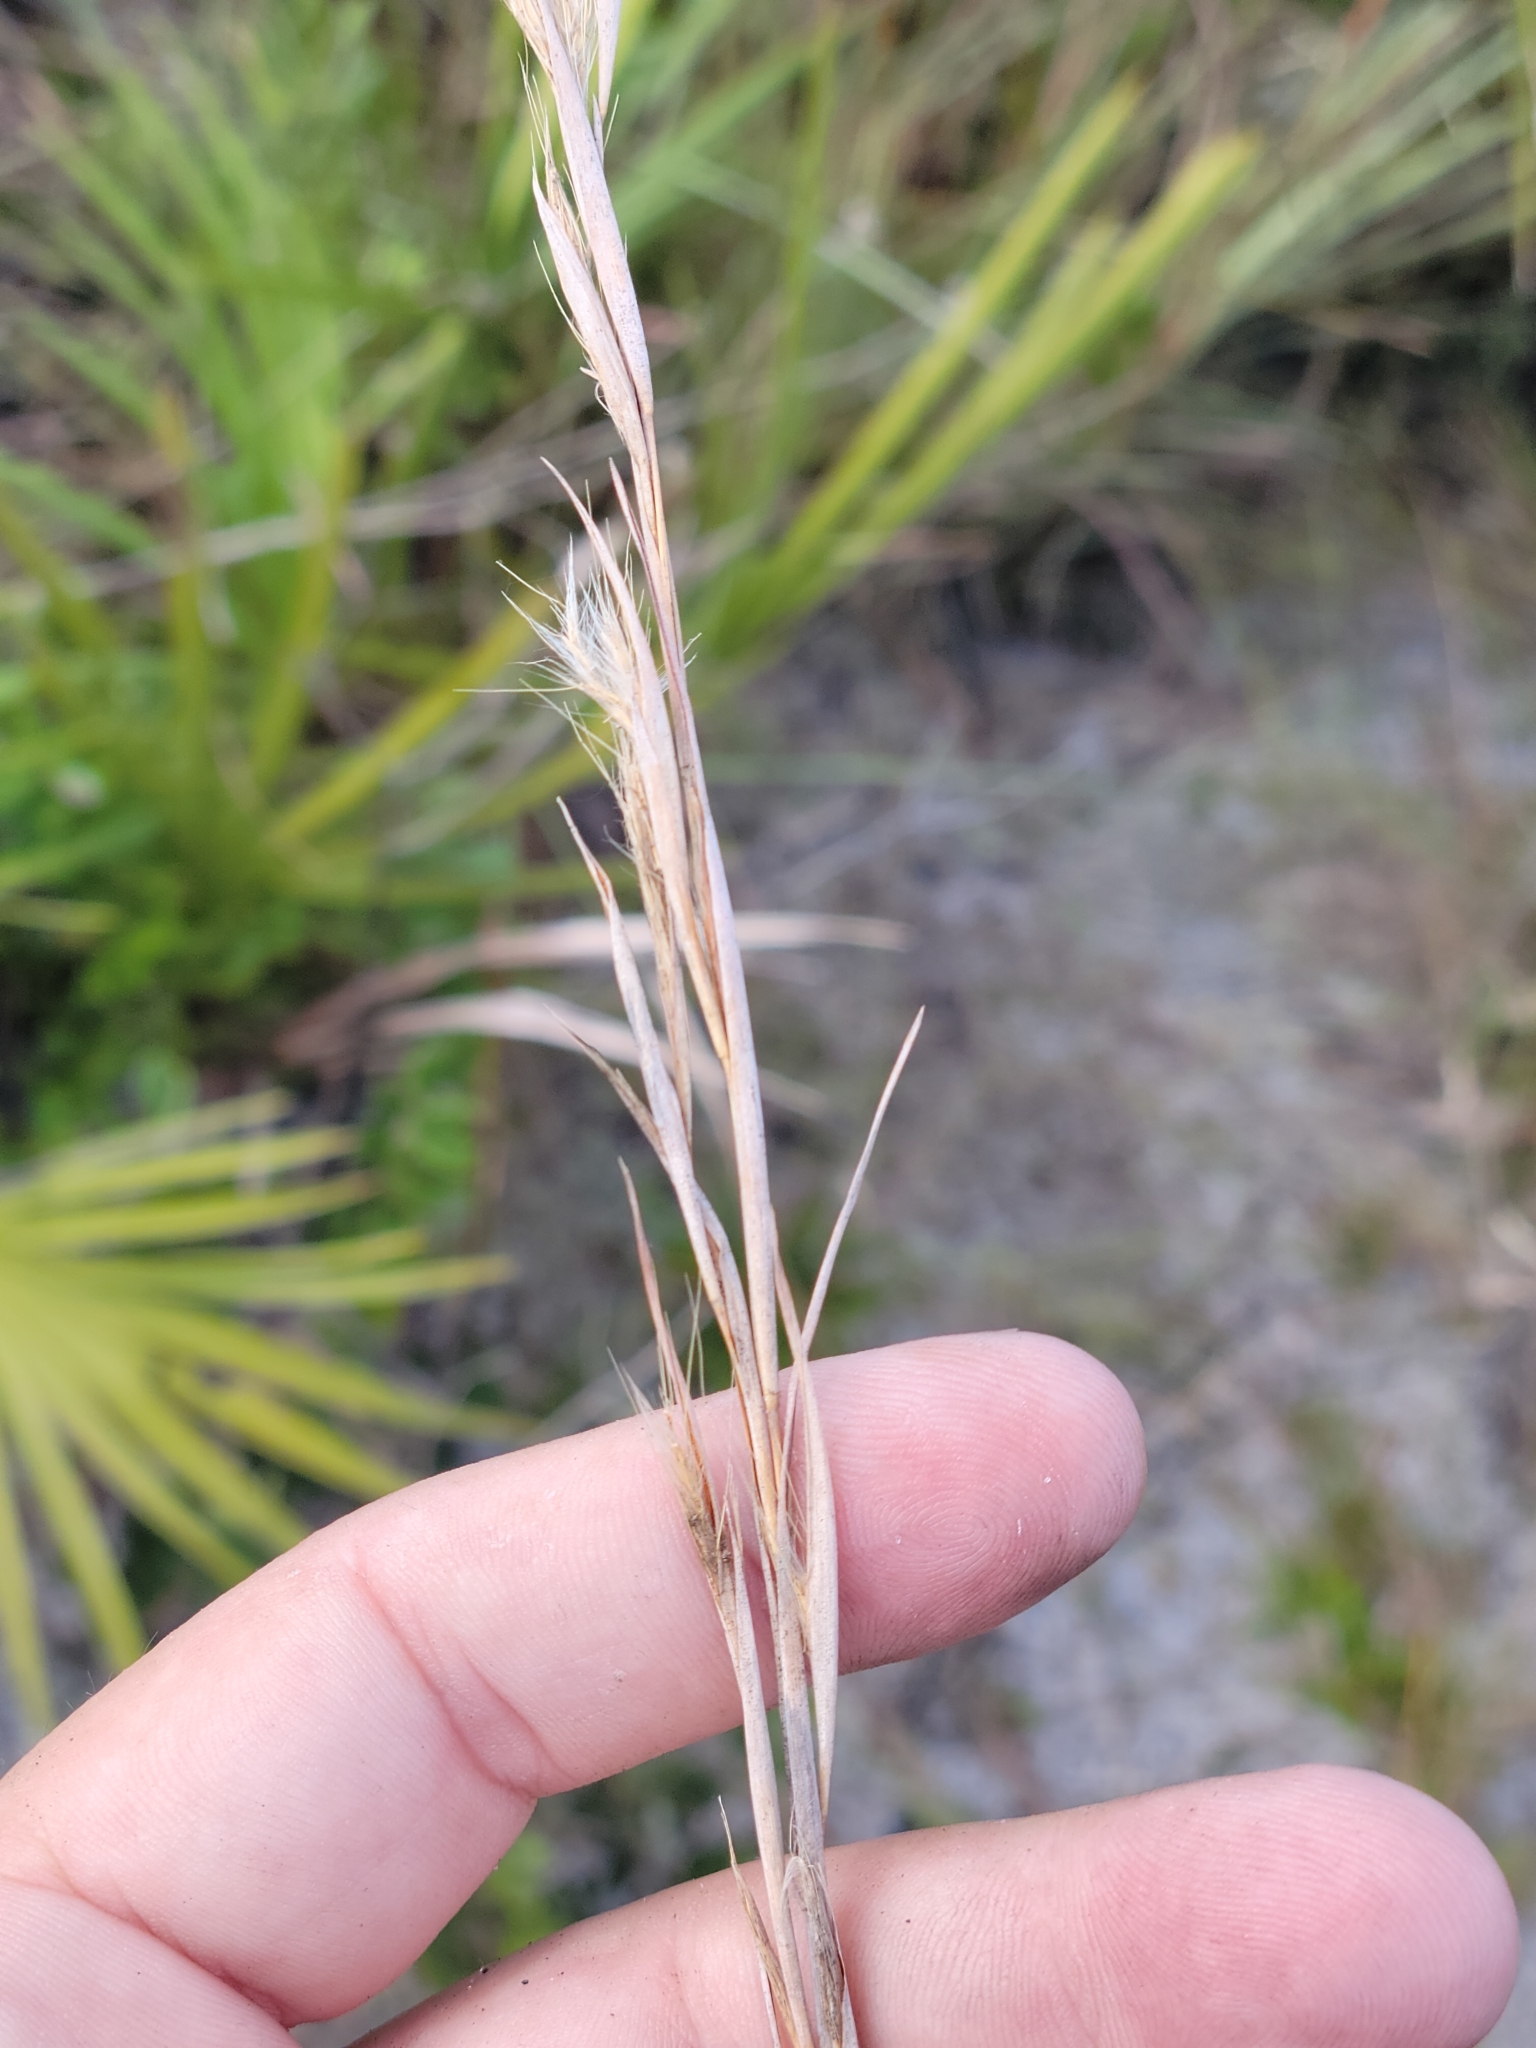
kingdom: Plantae
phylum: Tracheophyta
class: Liliopsida
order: Poales
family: Poaceae
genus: Andropogon
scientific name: Andropogon capillipes
